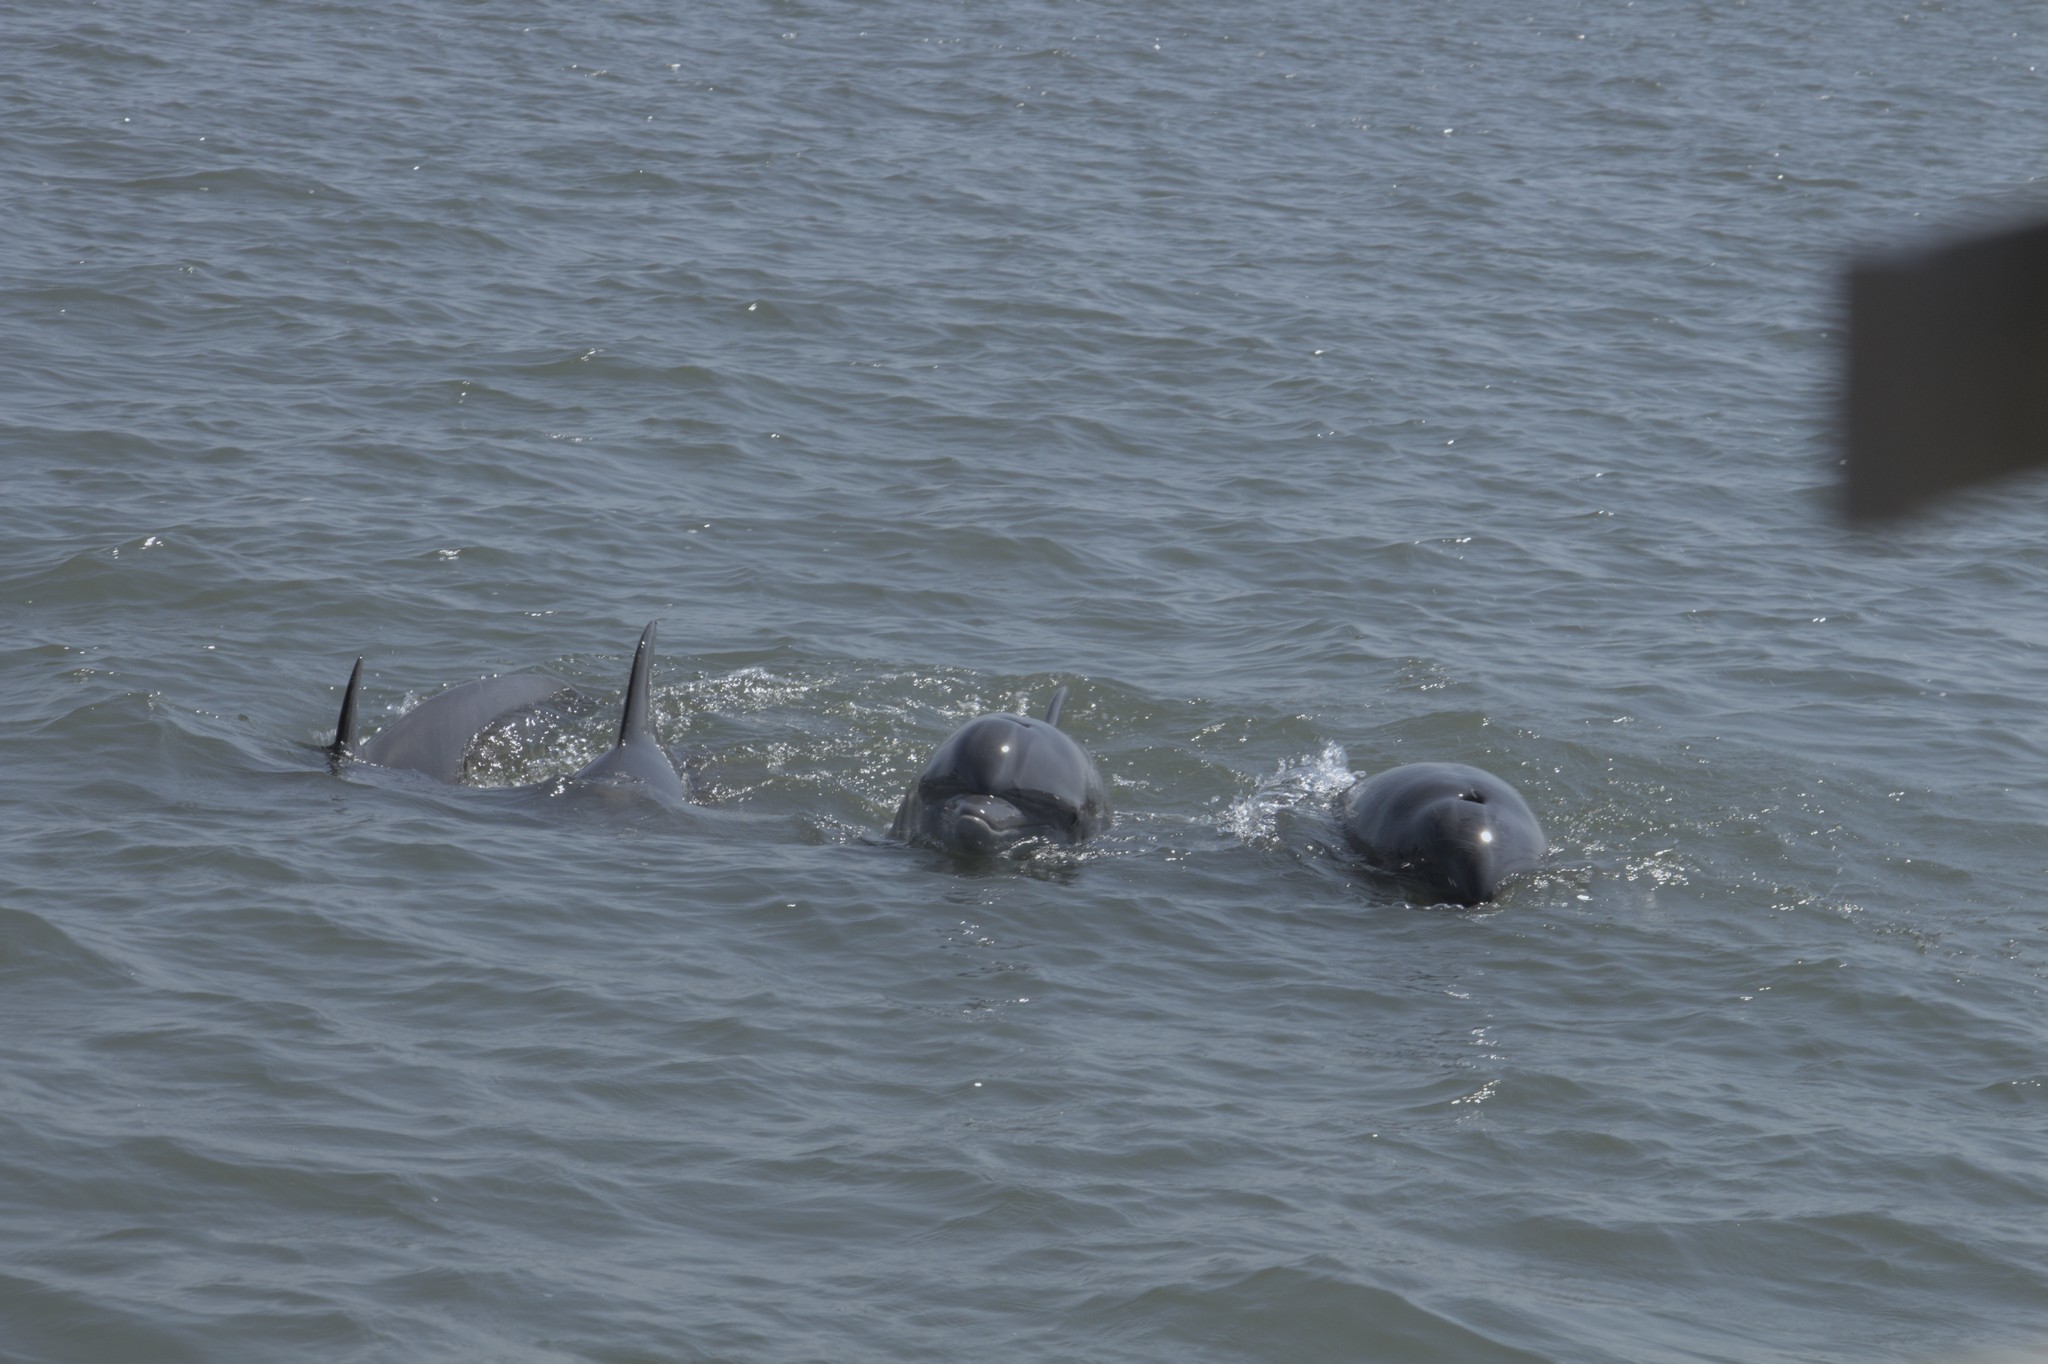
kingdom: Animalia
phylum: Chordata
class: Mammalia
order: Cetacea
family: Delphinidae
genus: Tursiops
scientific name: Tursiops truncatus
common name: Bottlenose dolphin
